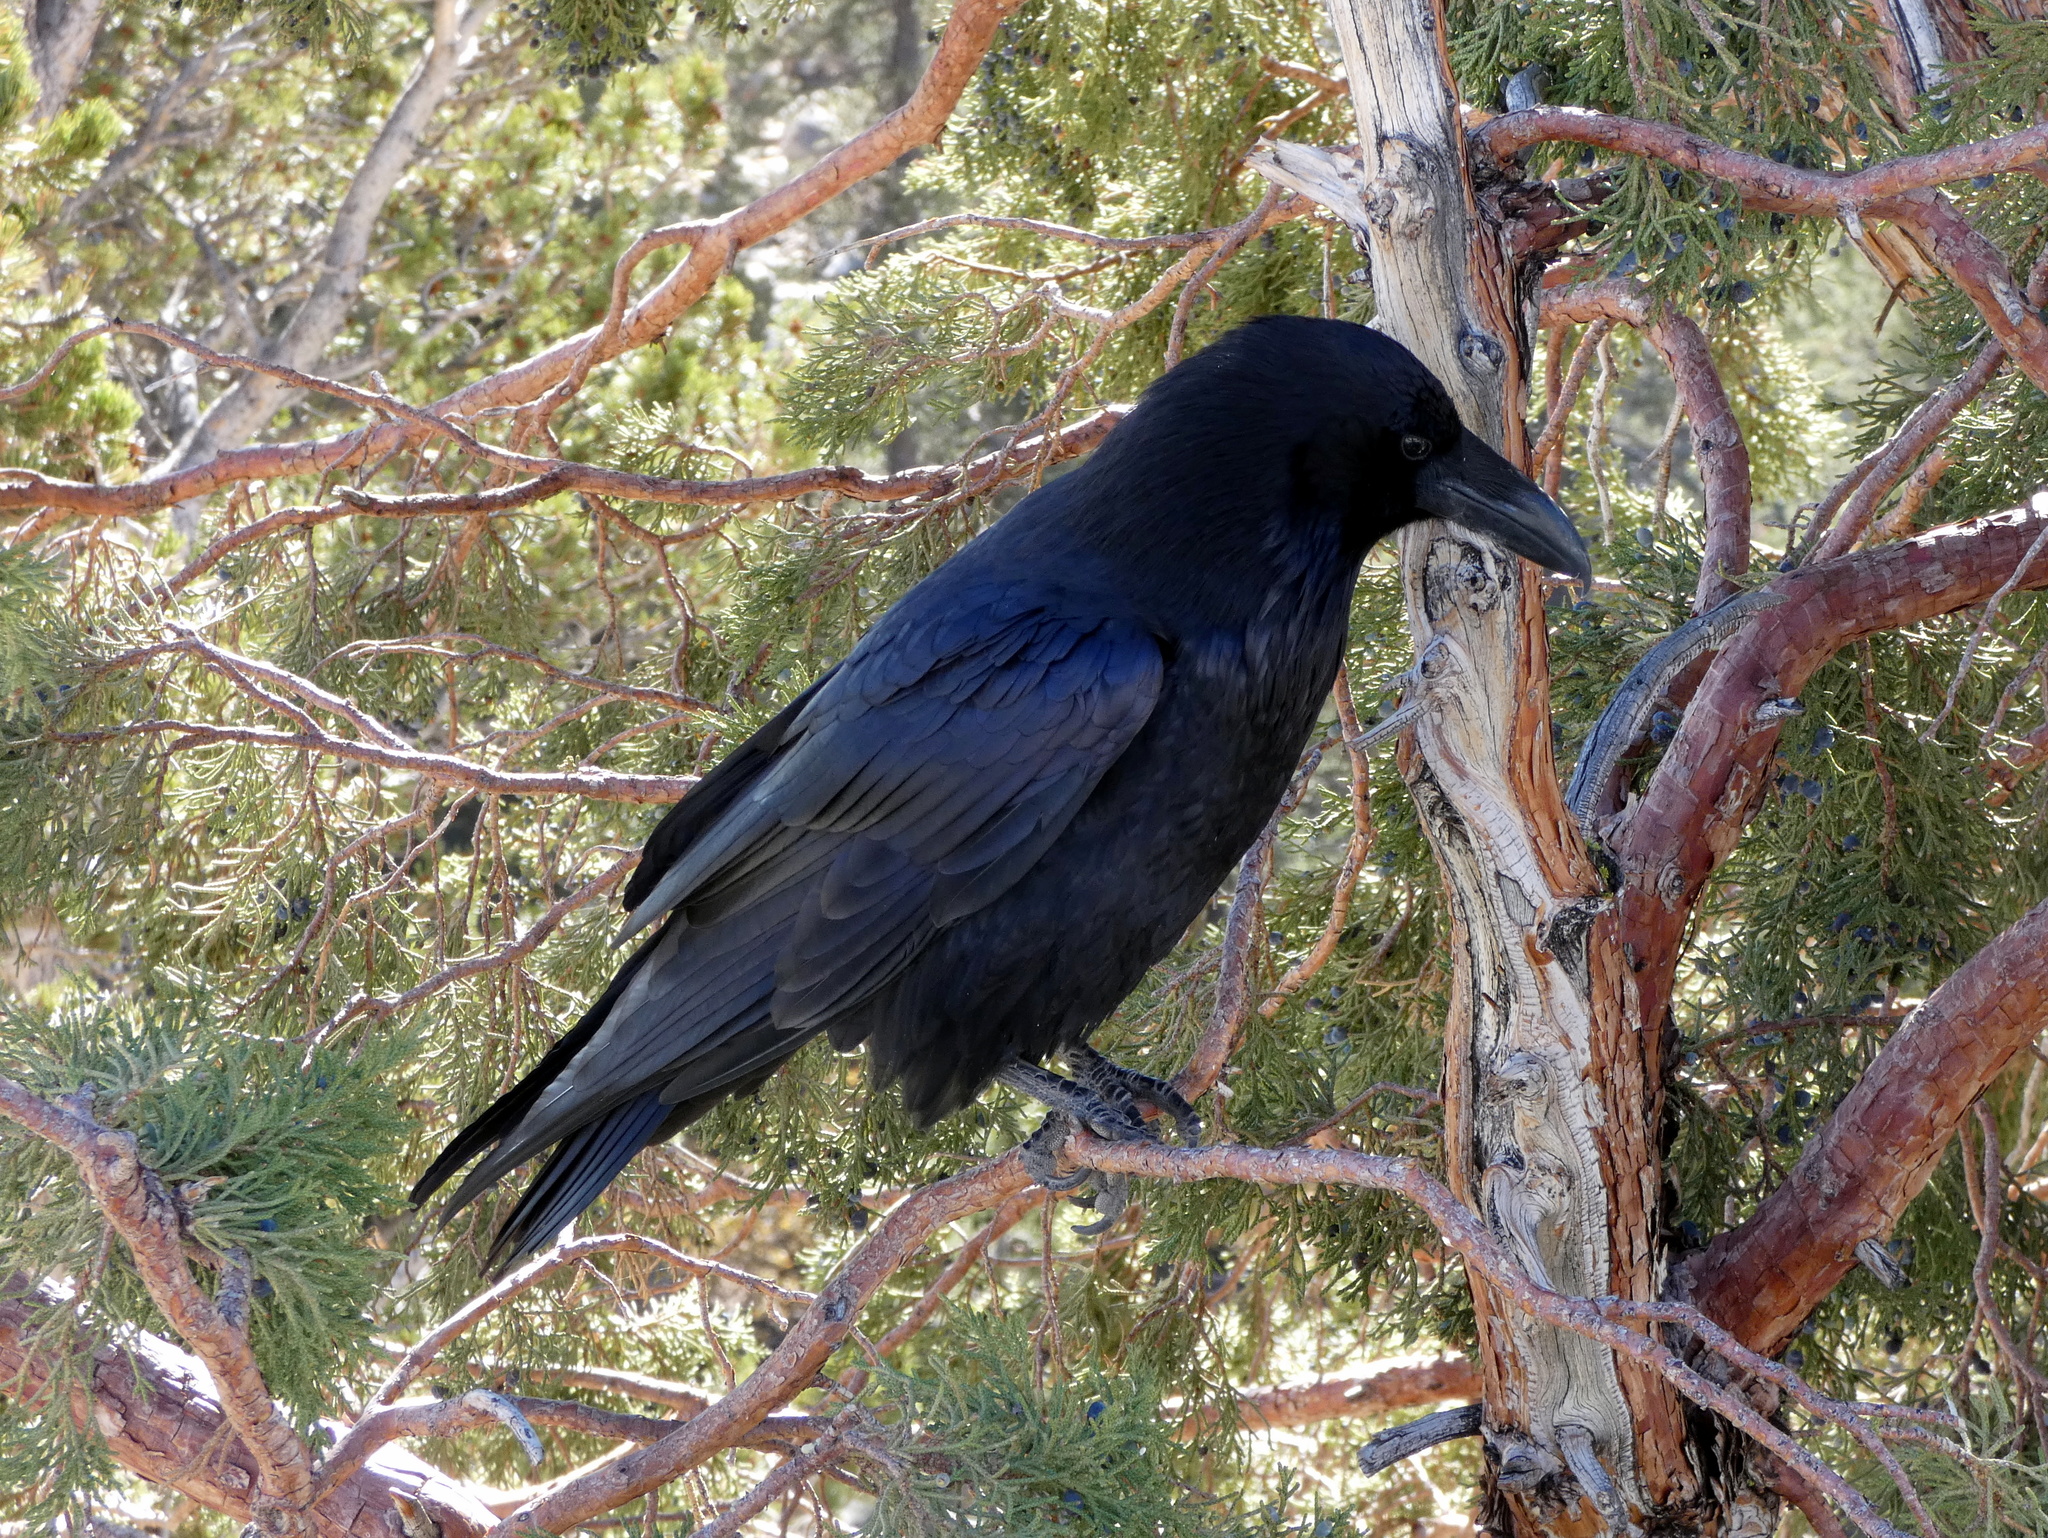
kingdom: Animalia
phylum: Chordata
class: Aves
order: Passeriformes
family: Corvidae
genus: Corvus
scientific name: Corvus corax
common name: Common raven
